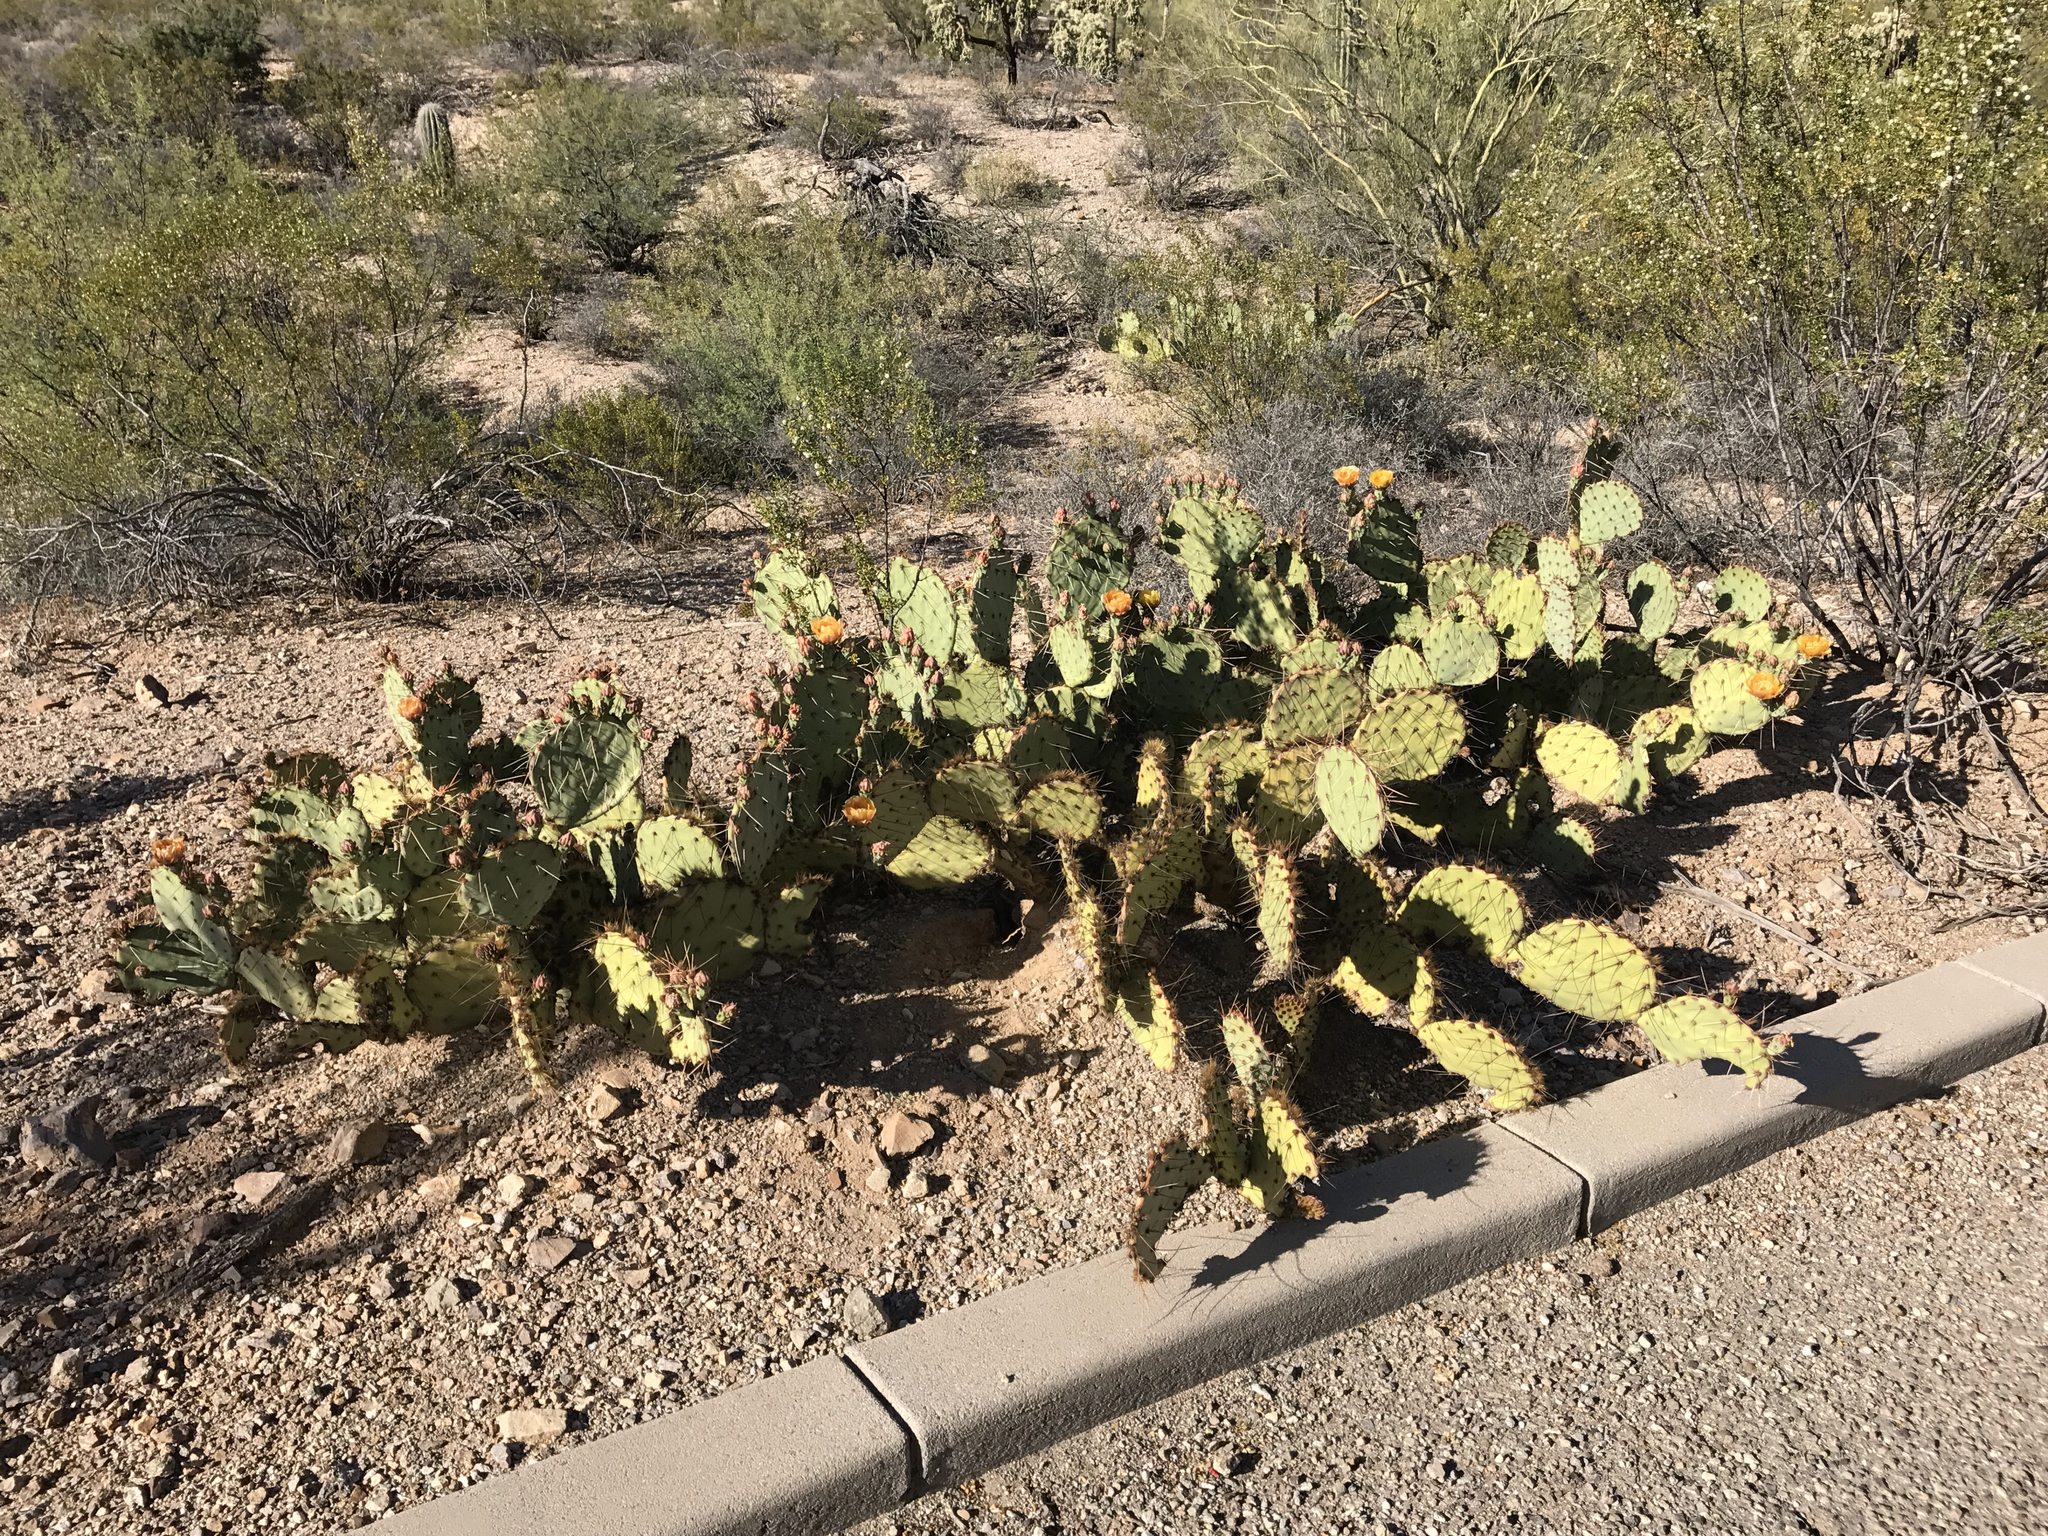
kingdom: Plantae
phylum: Tracheophyta
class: Magnoliopsida
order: Caryophyllales
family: Cactaceae
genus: Opuntia
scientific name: Opuntia engelmannii
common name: Cactus-apple
